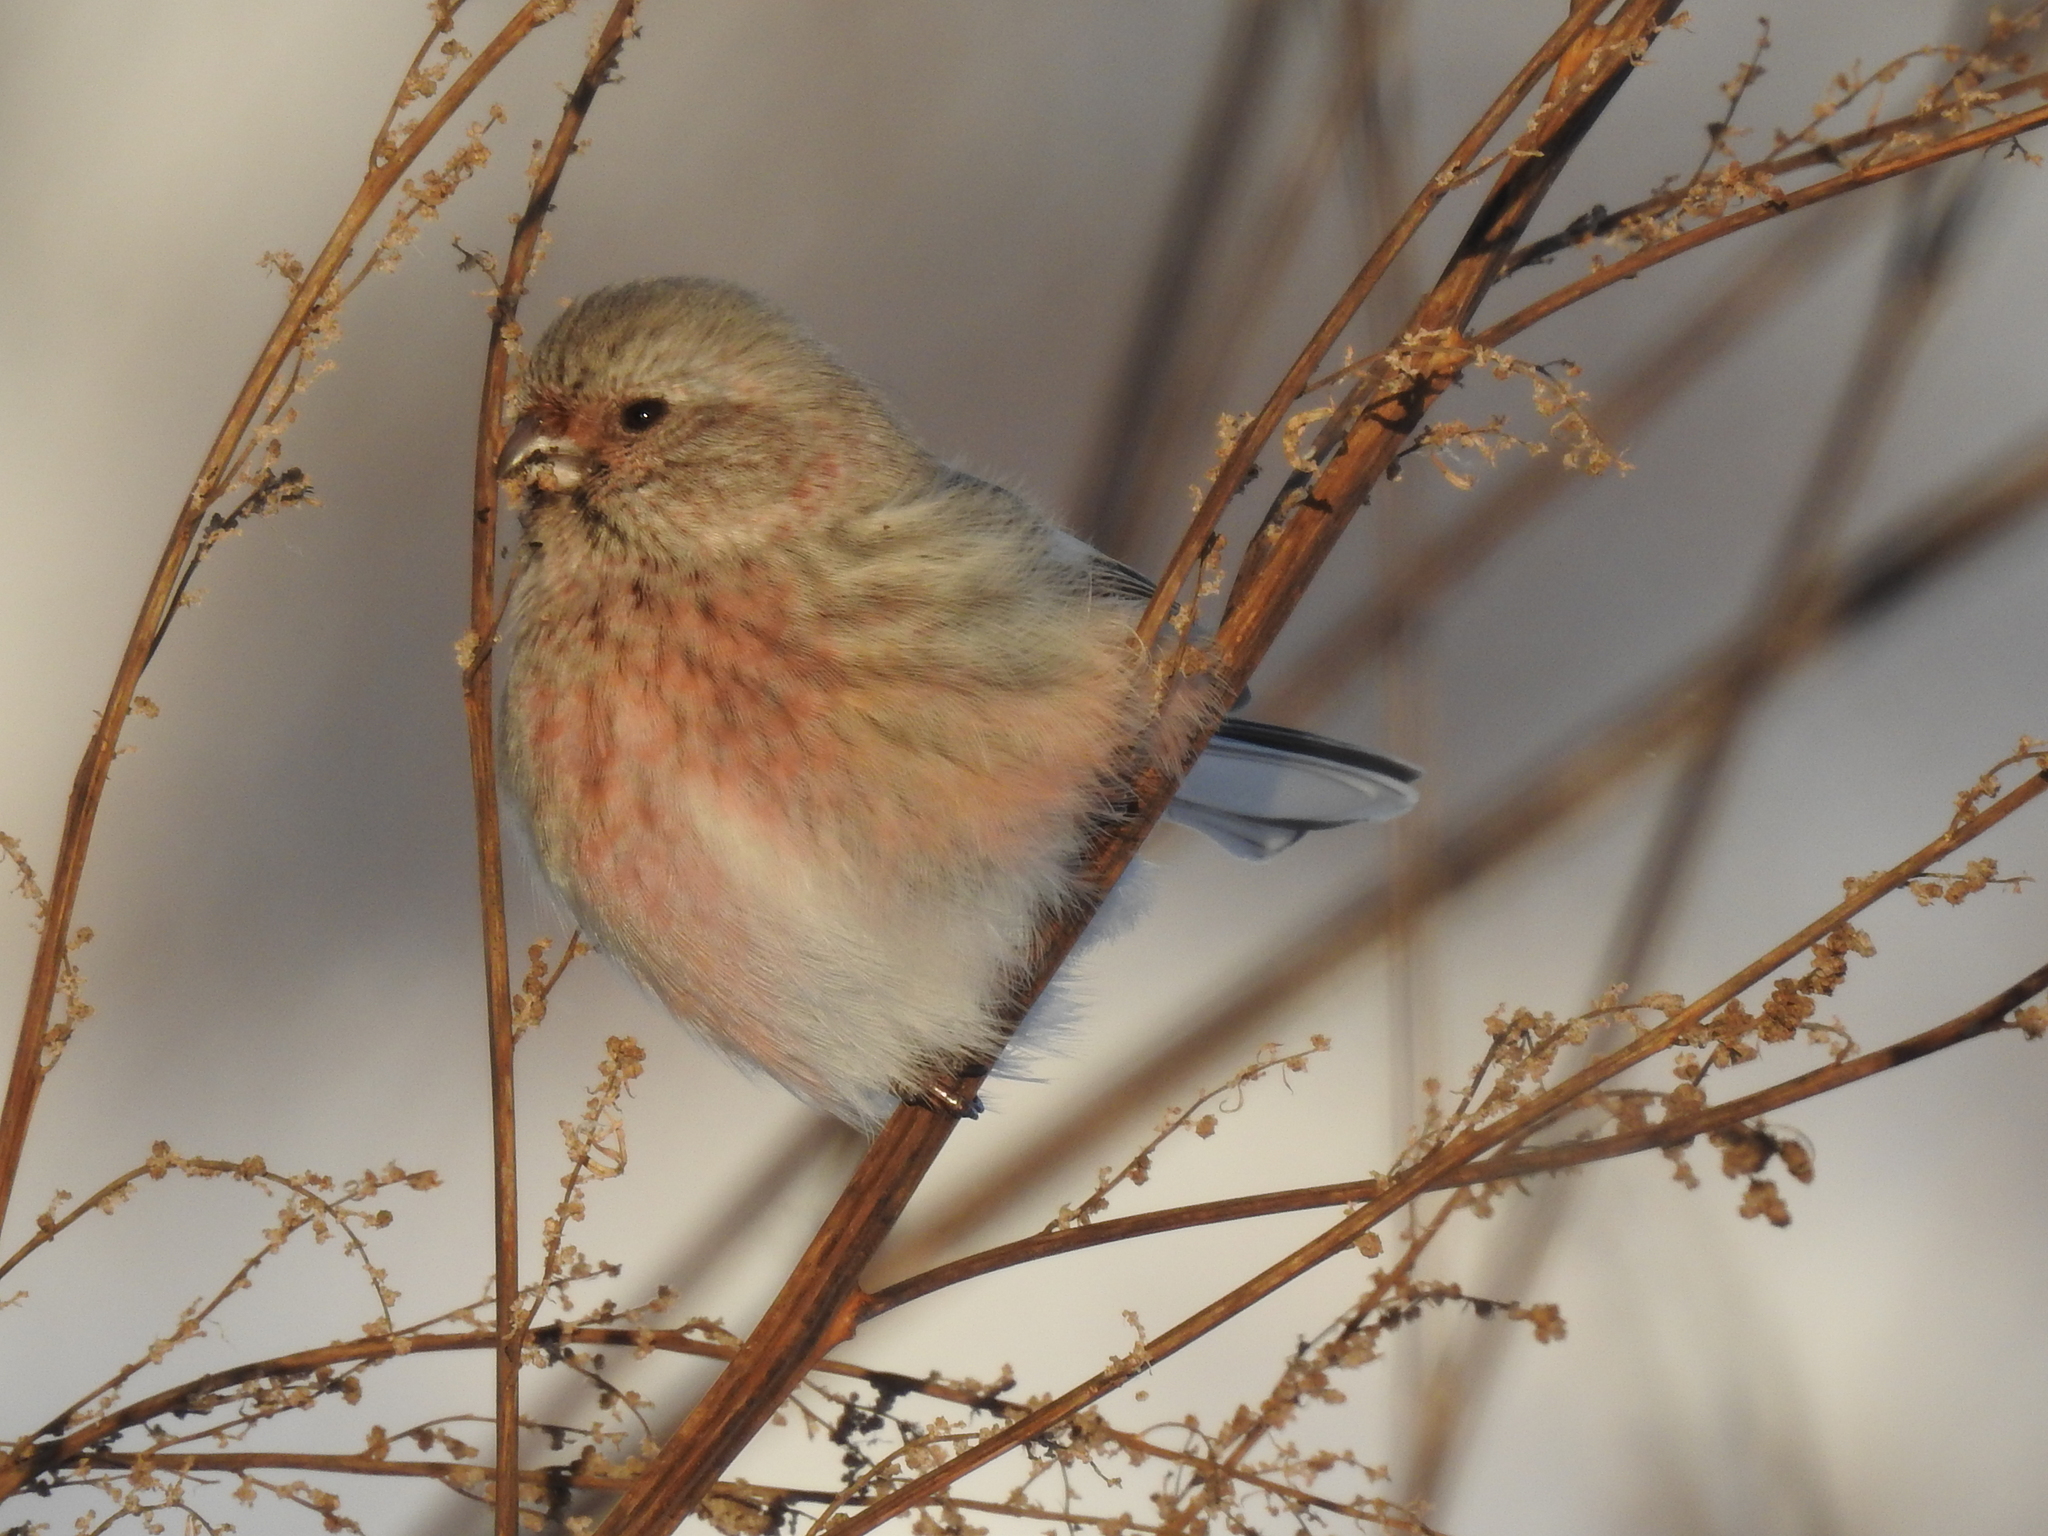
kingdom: Animalia
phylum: Chordata
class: Aves
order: Passeriformes
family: Fringillidae
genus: Carpodacus
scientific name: Carpodacus sibiricus
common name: Long-tailed rosefinch
